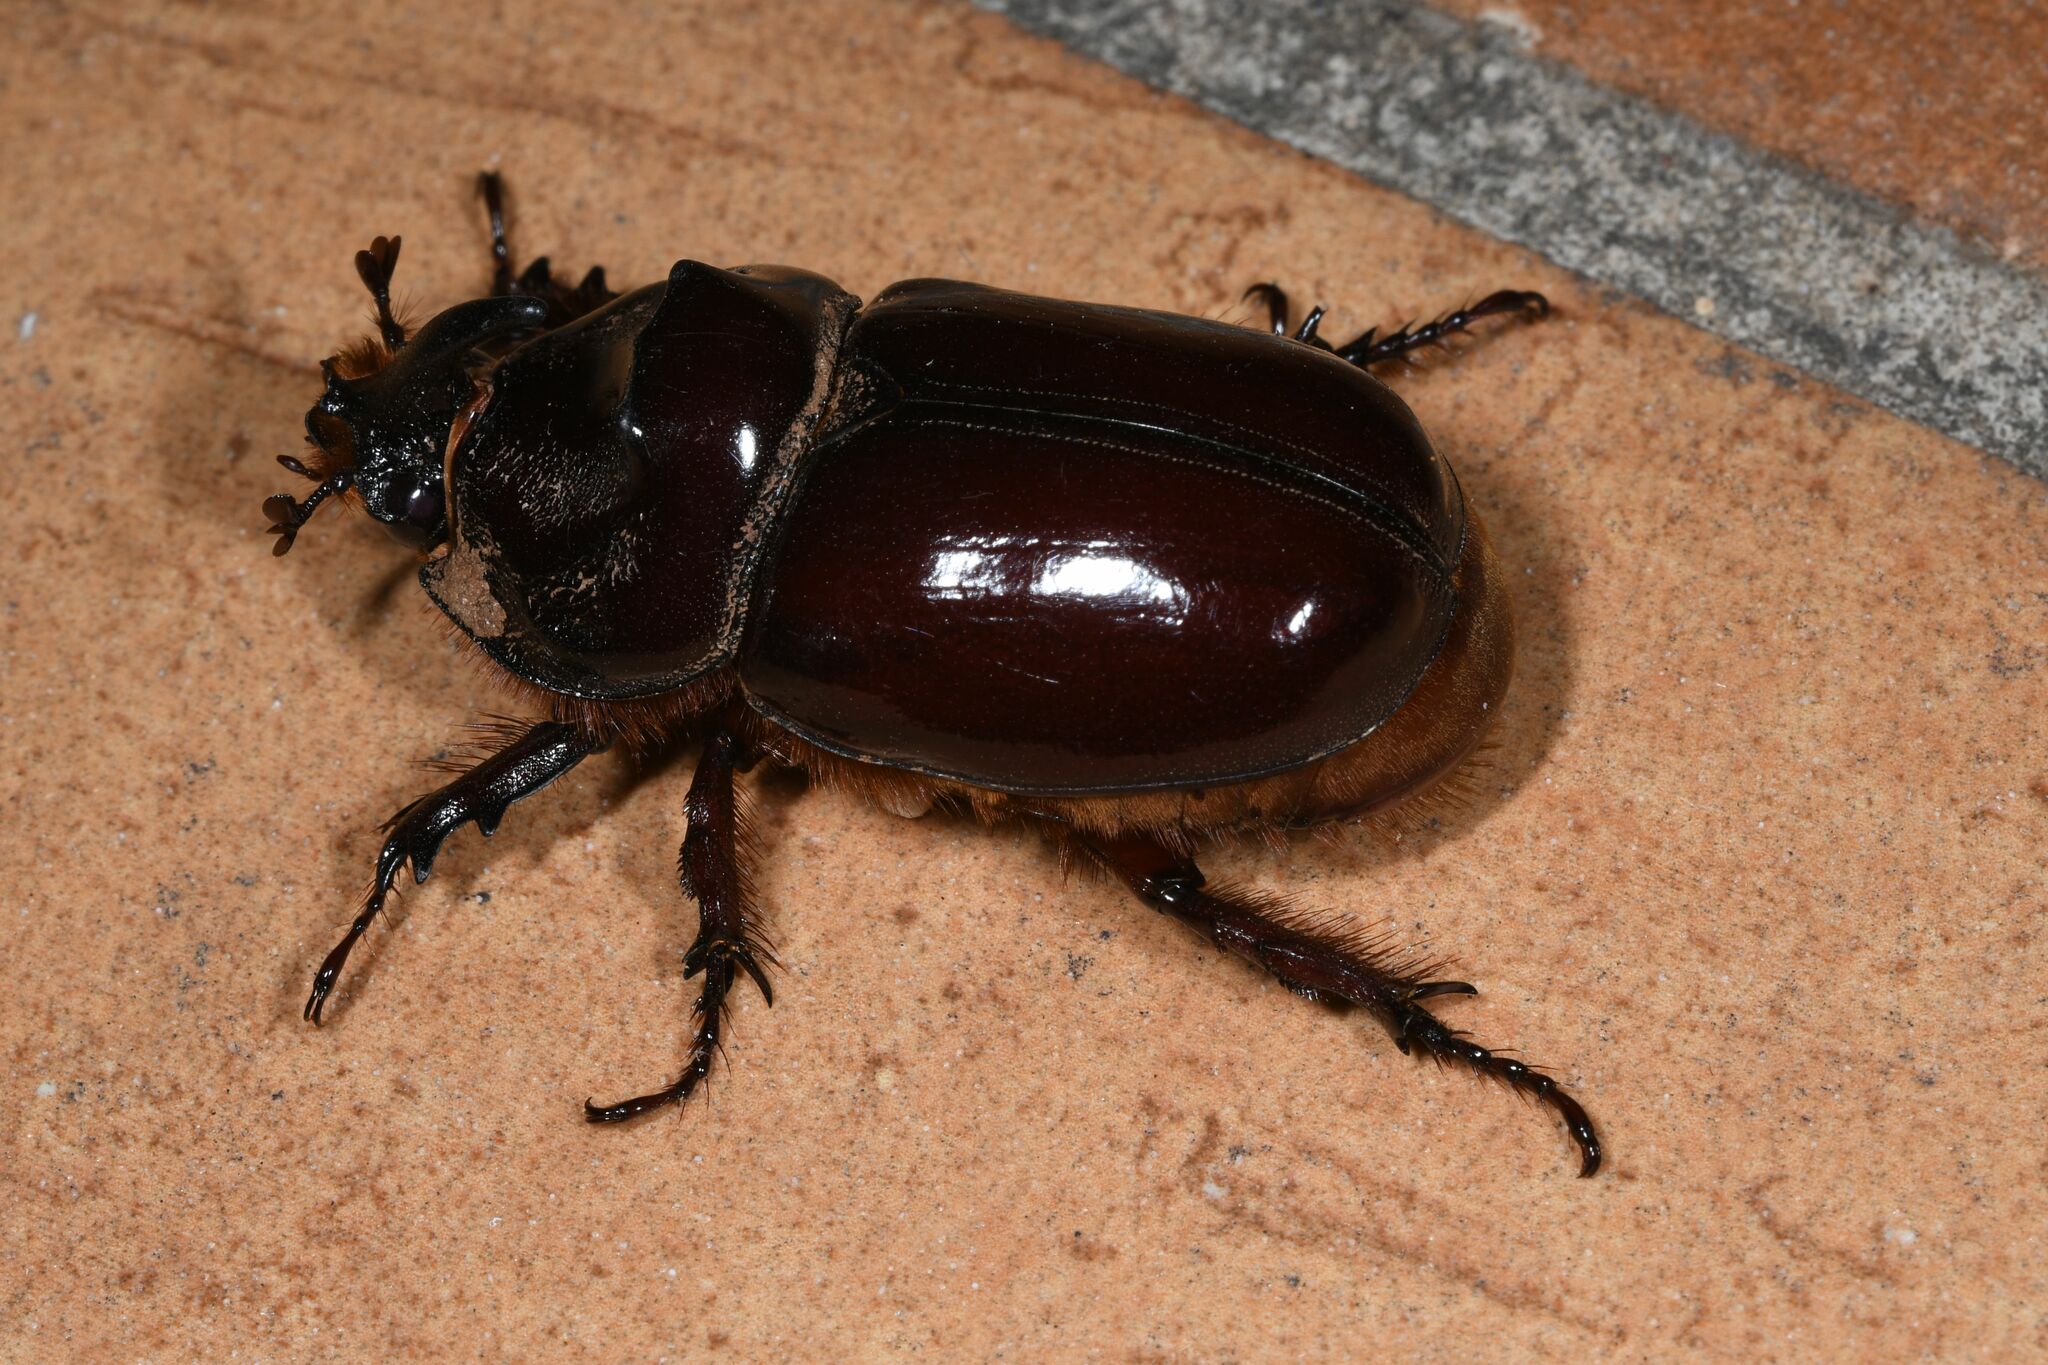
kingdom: Animalia
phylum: Arthropoda
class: Insecta
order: Coleoptera
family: Scarabaeidae
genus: Oryctes
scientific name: Oryctes nasicornis
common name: European rhinoceros beetle
